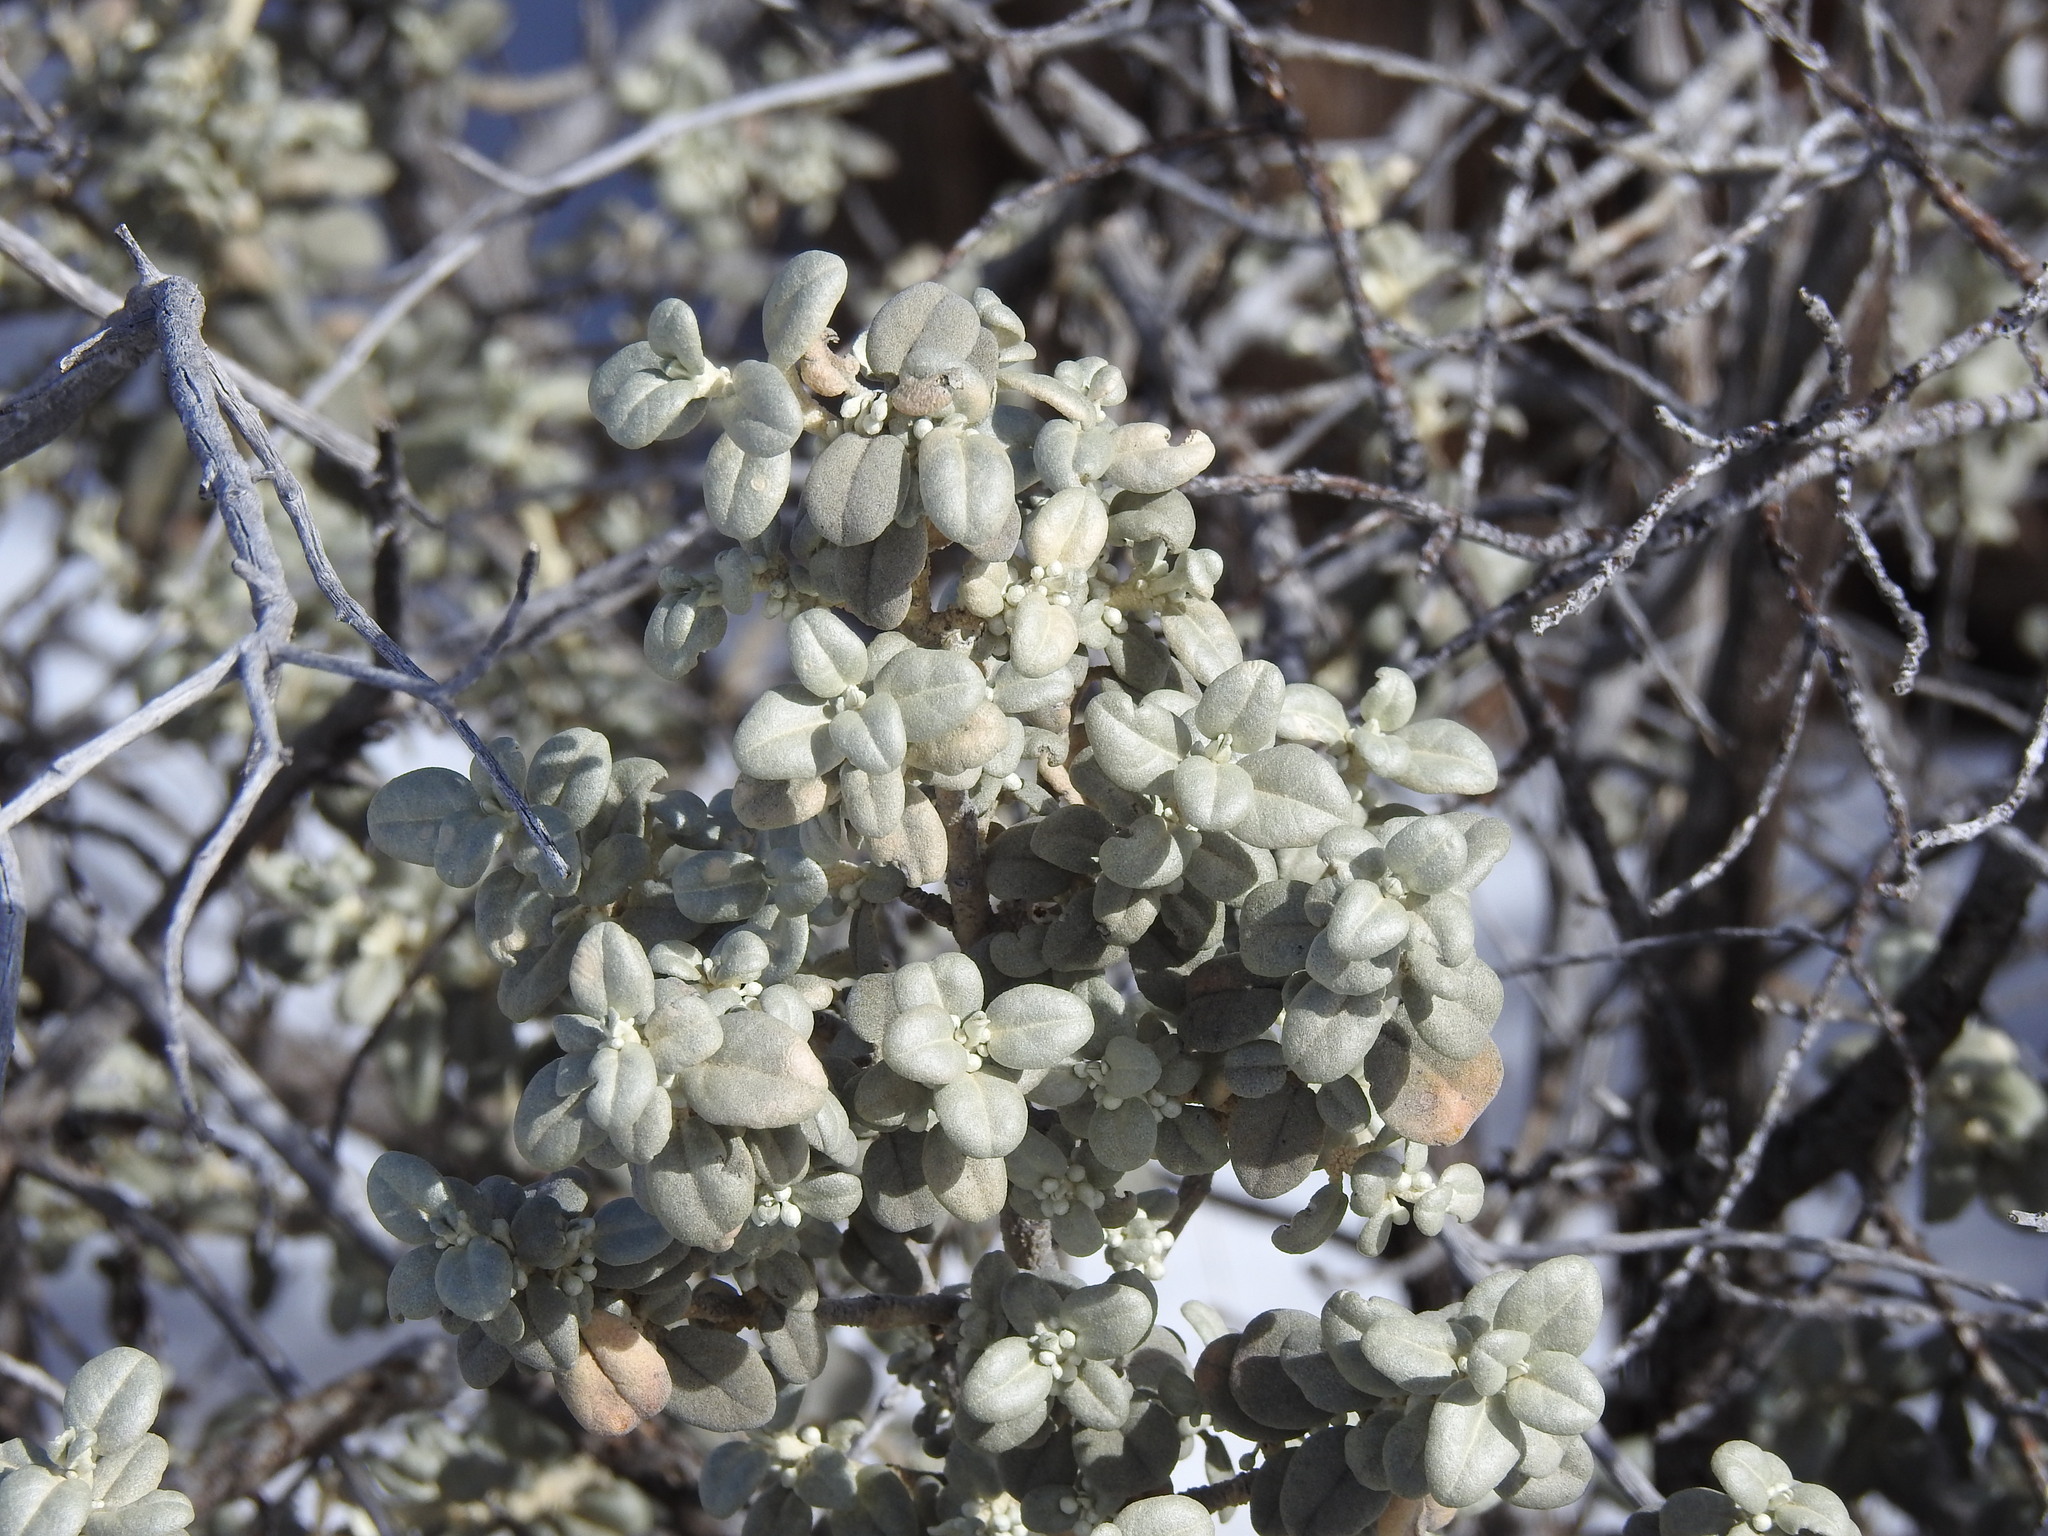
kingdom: Plantae
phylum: Tracheophyta
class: Magnoliopsida
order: Rosales
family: Elaeagnaceae
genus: Shepherdia
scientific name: Shepherdia rotundifolia
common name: Silverscale
